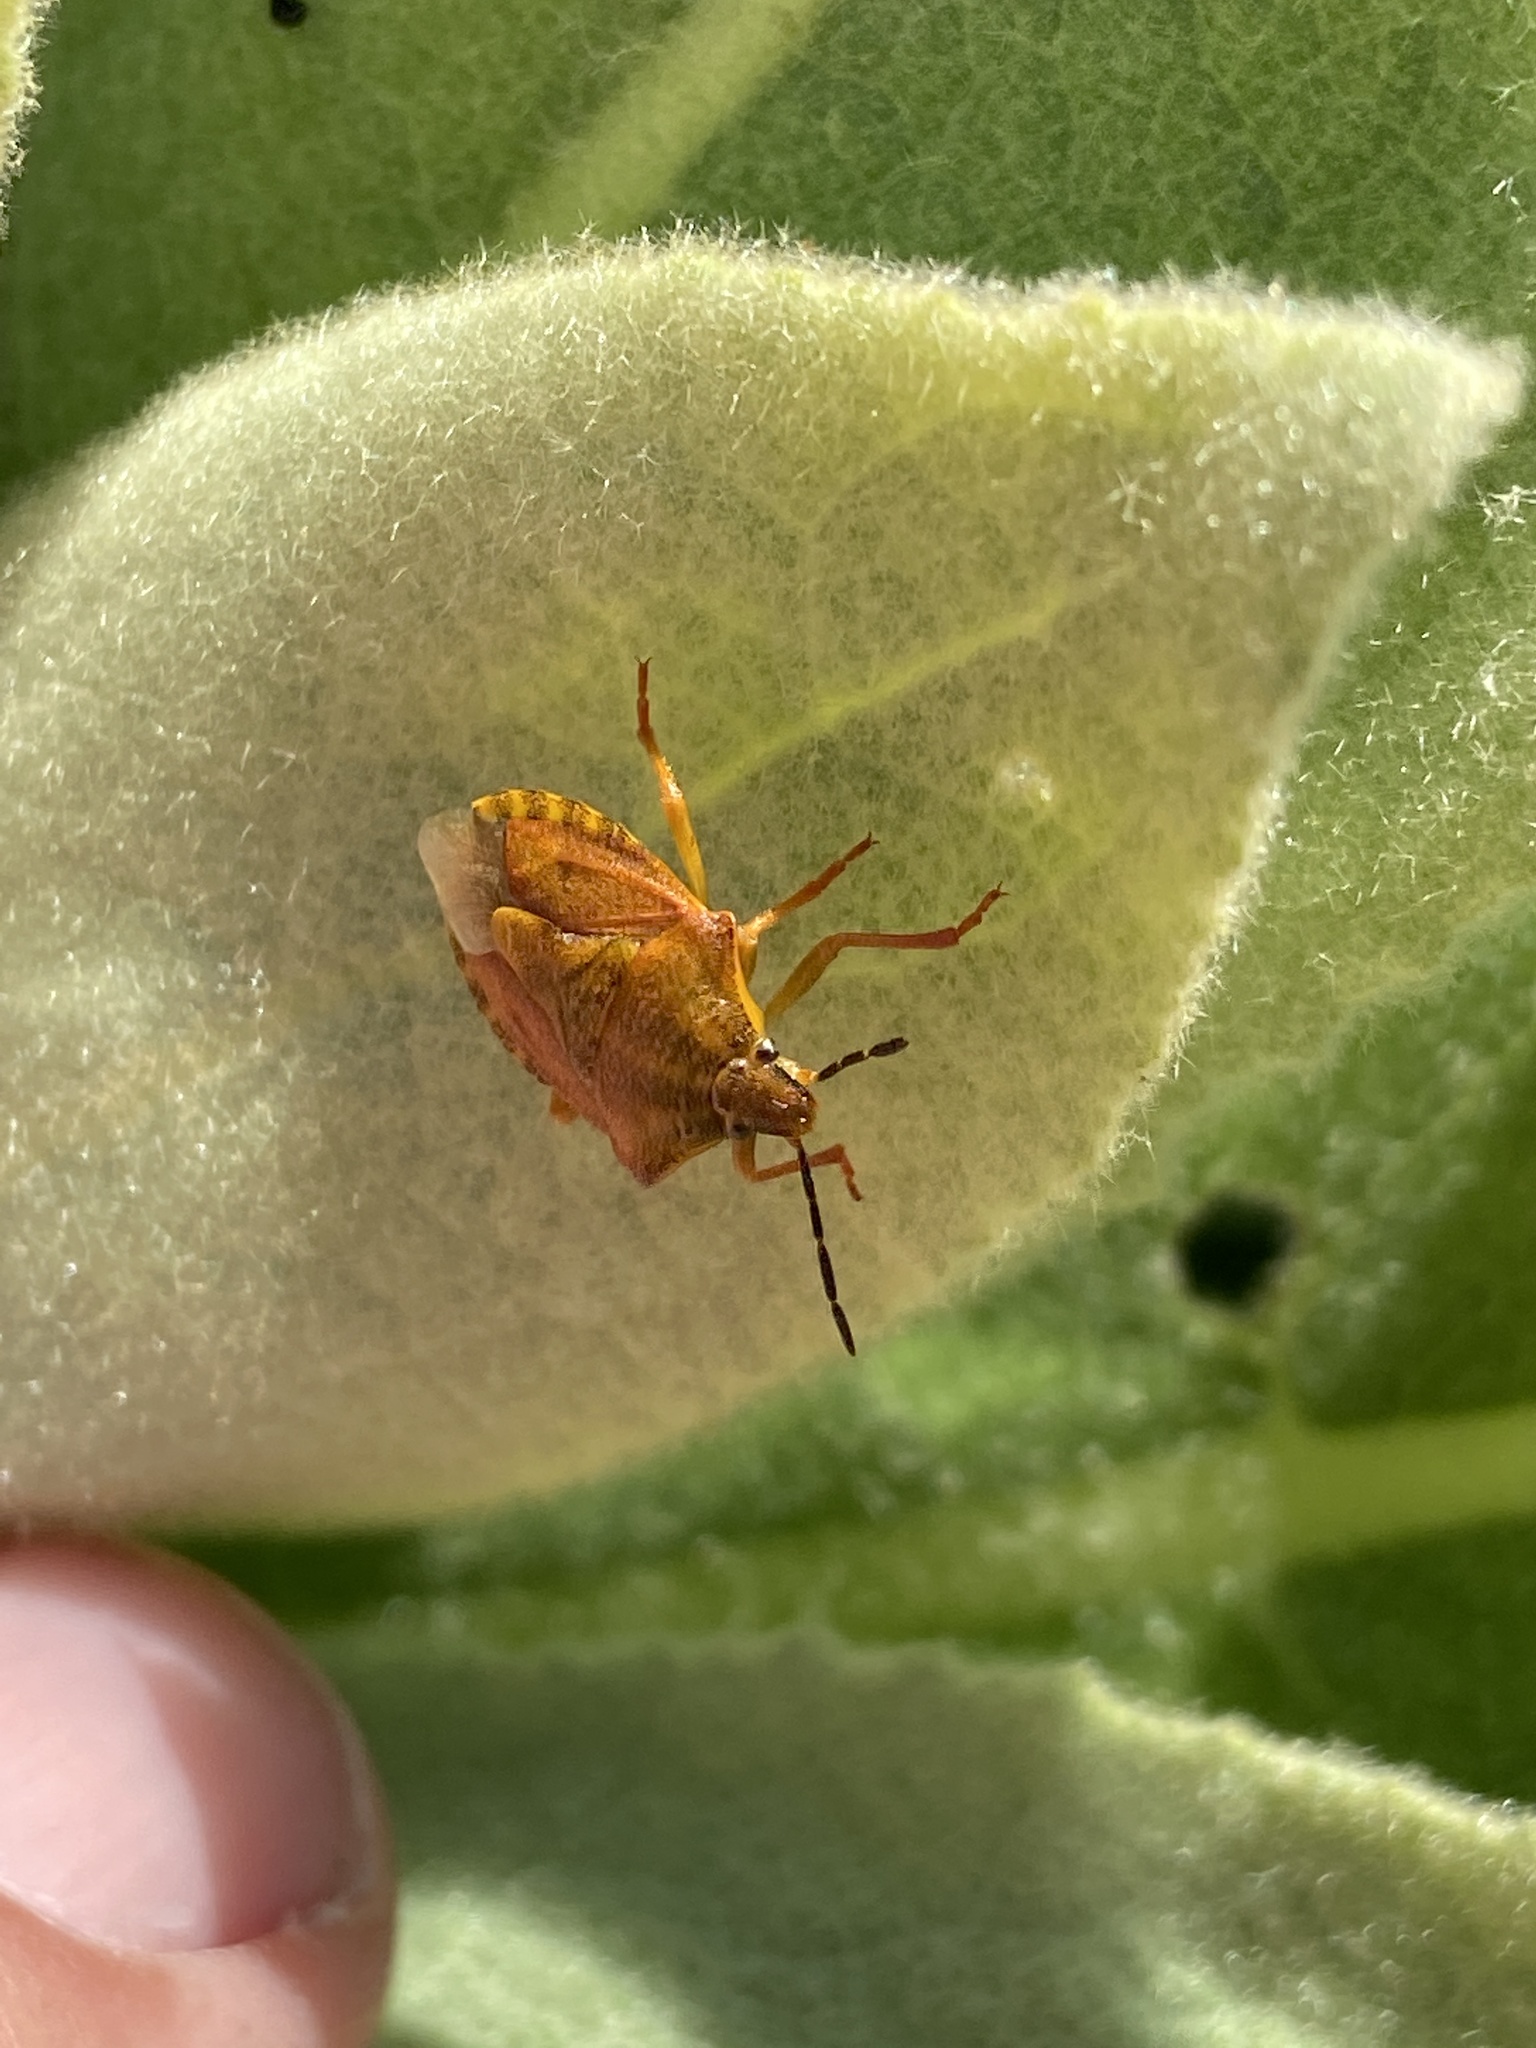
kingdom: Animalia
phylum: Arthropoda
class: Insecta
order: Hemiptera
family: Pentatomidae
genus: Carpocoris
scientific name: Carpocoris purpureipennis
